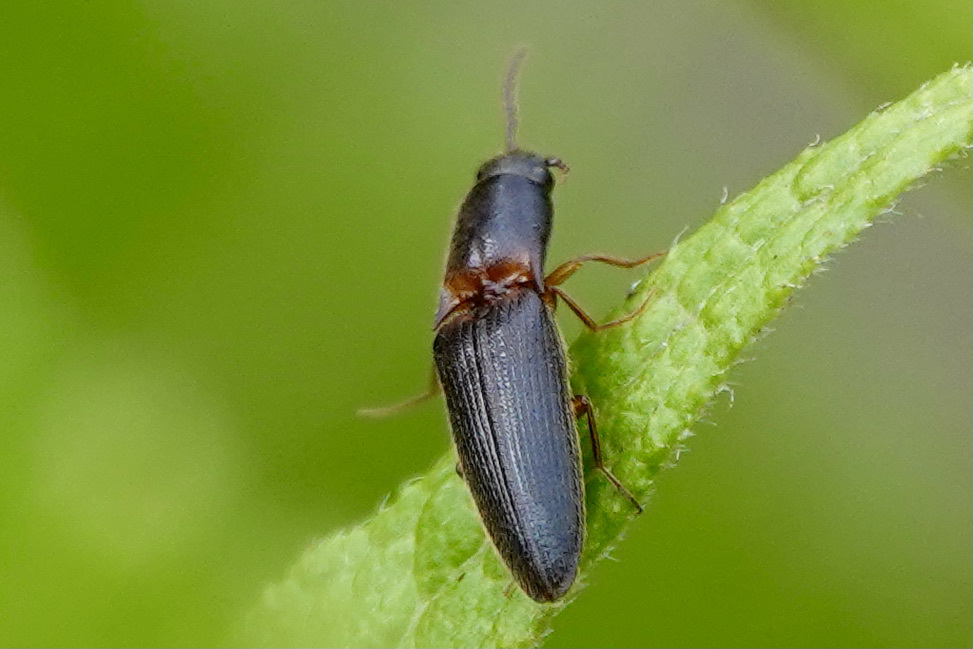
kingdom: Animalia
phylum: Arthropoda
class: Insecta
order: Coleoptera
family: Elateridae
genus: Megapenthes
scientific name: Megapenthes
